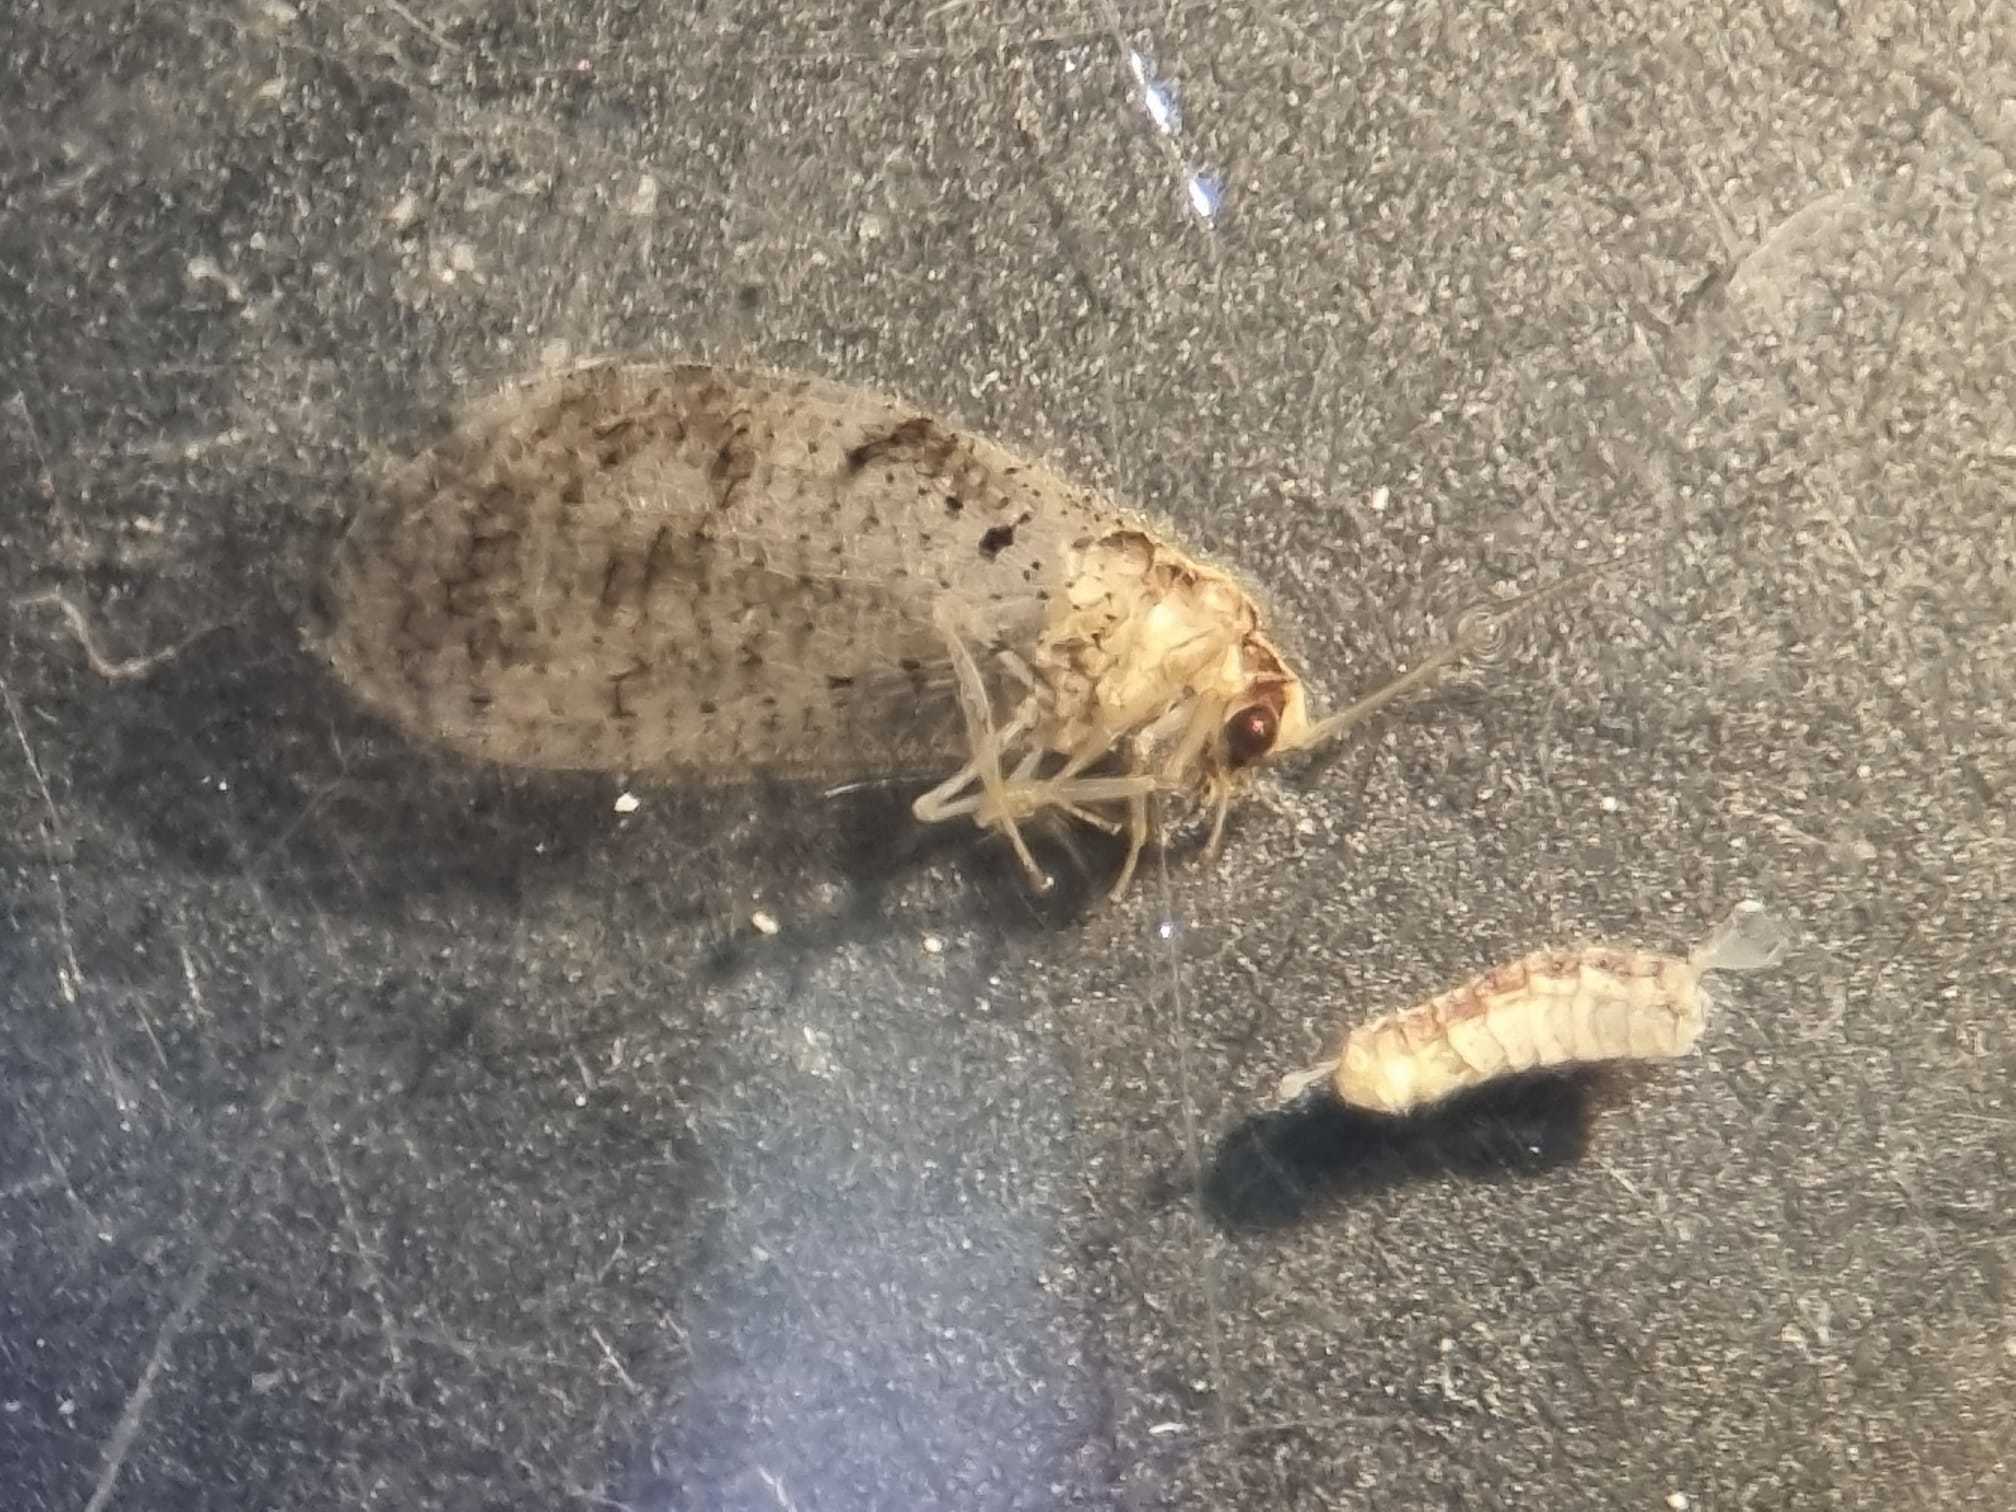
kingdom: Animalia
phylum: Arthropoda
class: Insecta
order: Neuroptera
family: Hemerobiidae
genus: Hemerobius
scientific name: Hemerobius humulinus
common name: Humulin brown lacewing
